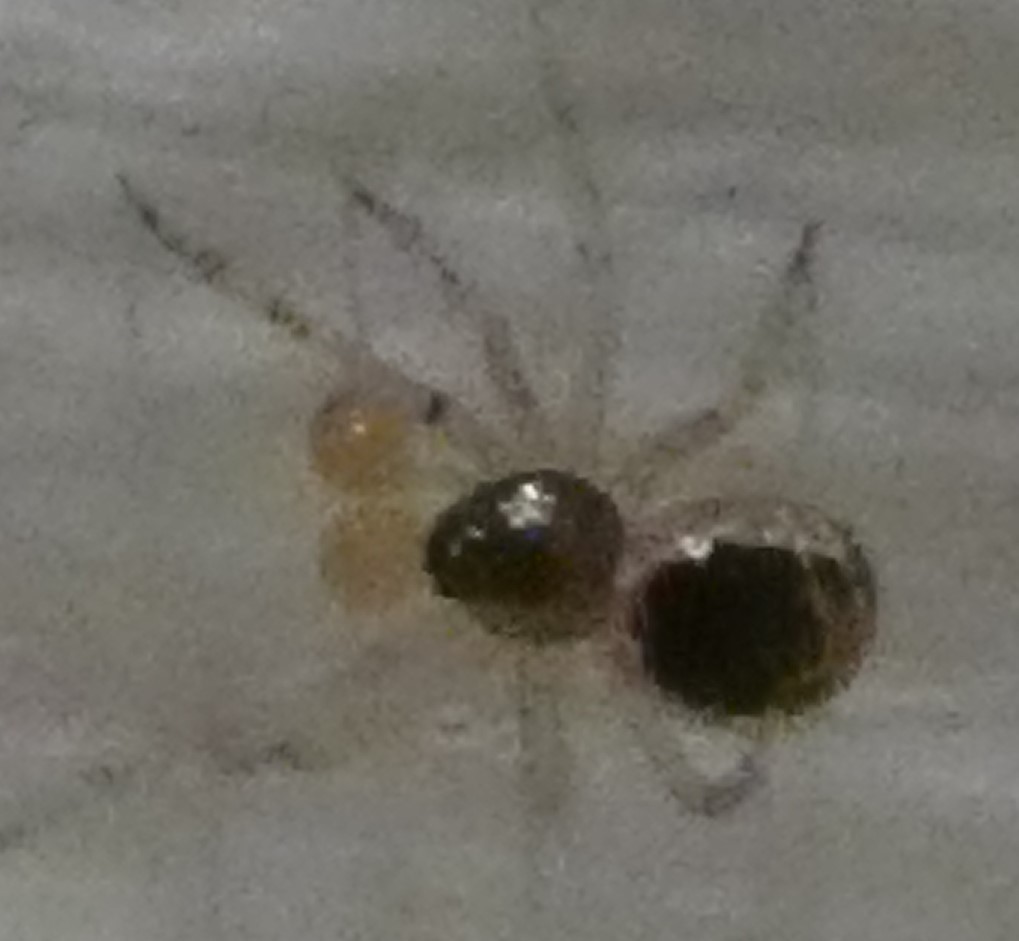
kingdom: Animalia
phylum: Arthropoda
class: Arachnida
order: Araneae
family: Theridiidae
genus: Sardinidion
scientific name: Sardinidion blackwalli
